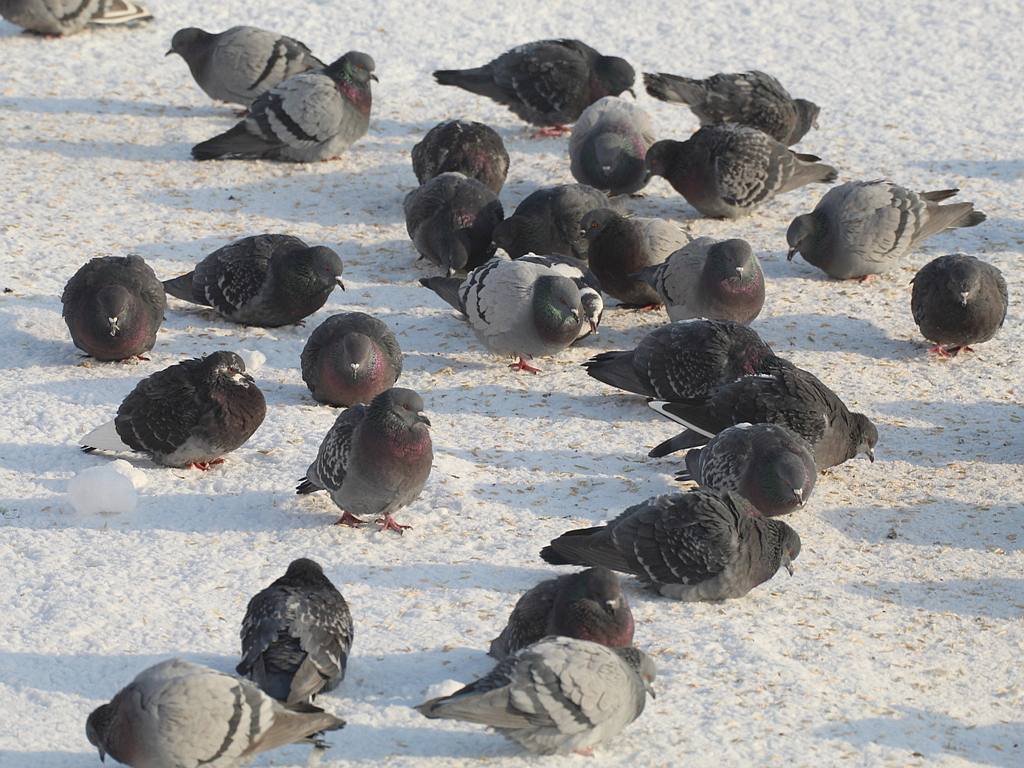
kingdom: Animalia
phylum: Chordata
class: Aves
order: Columbiformes
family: Columbidae
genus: Columba
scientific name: Columba livia
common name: Rock pigeon
